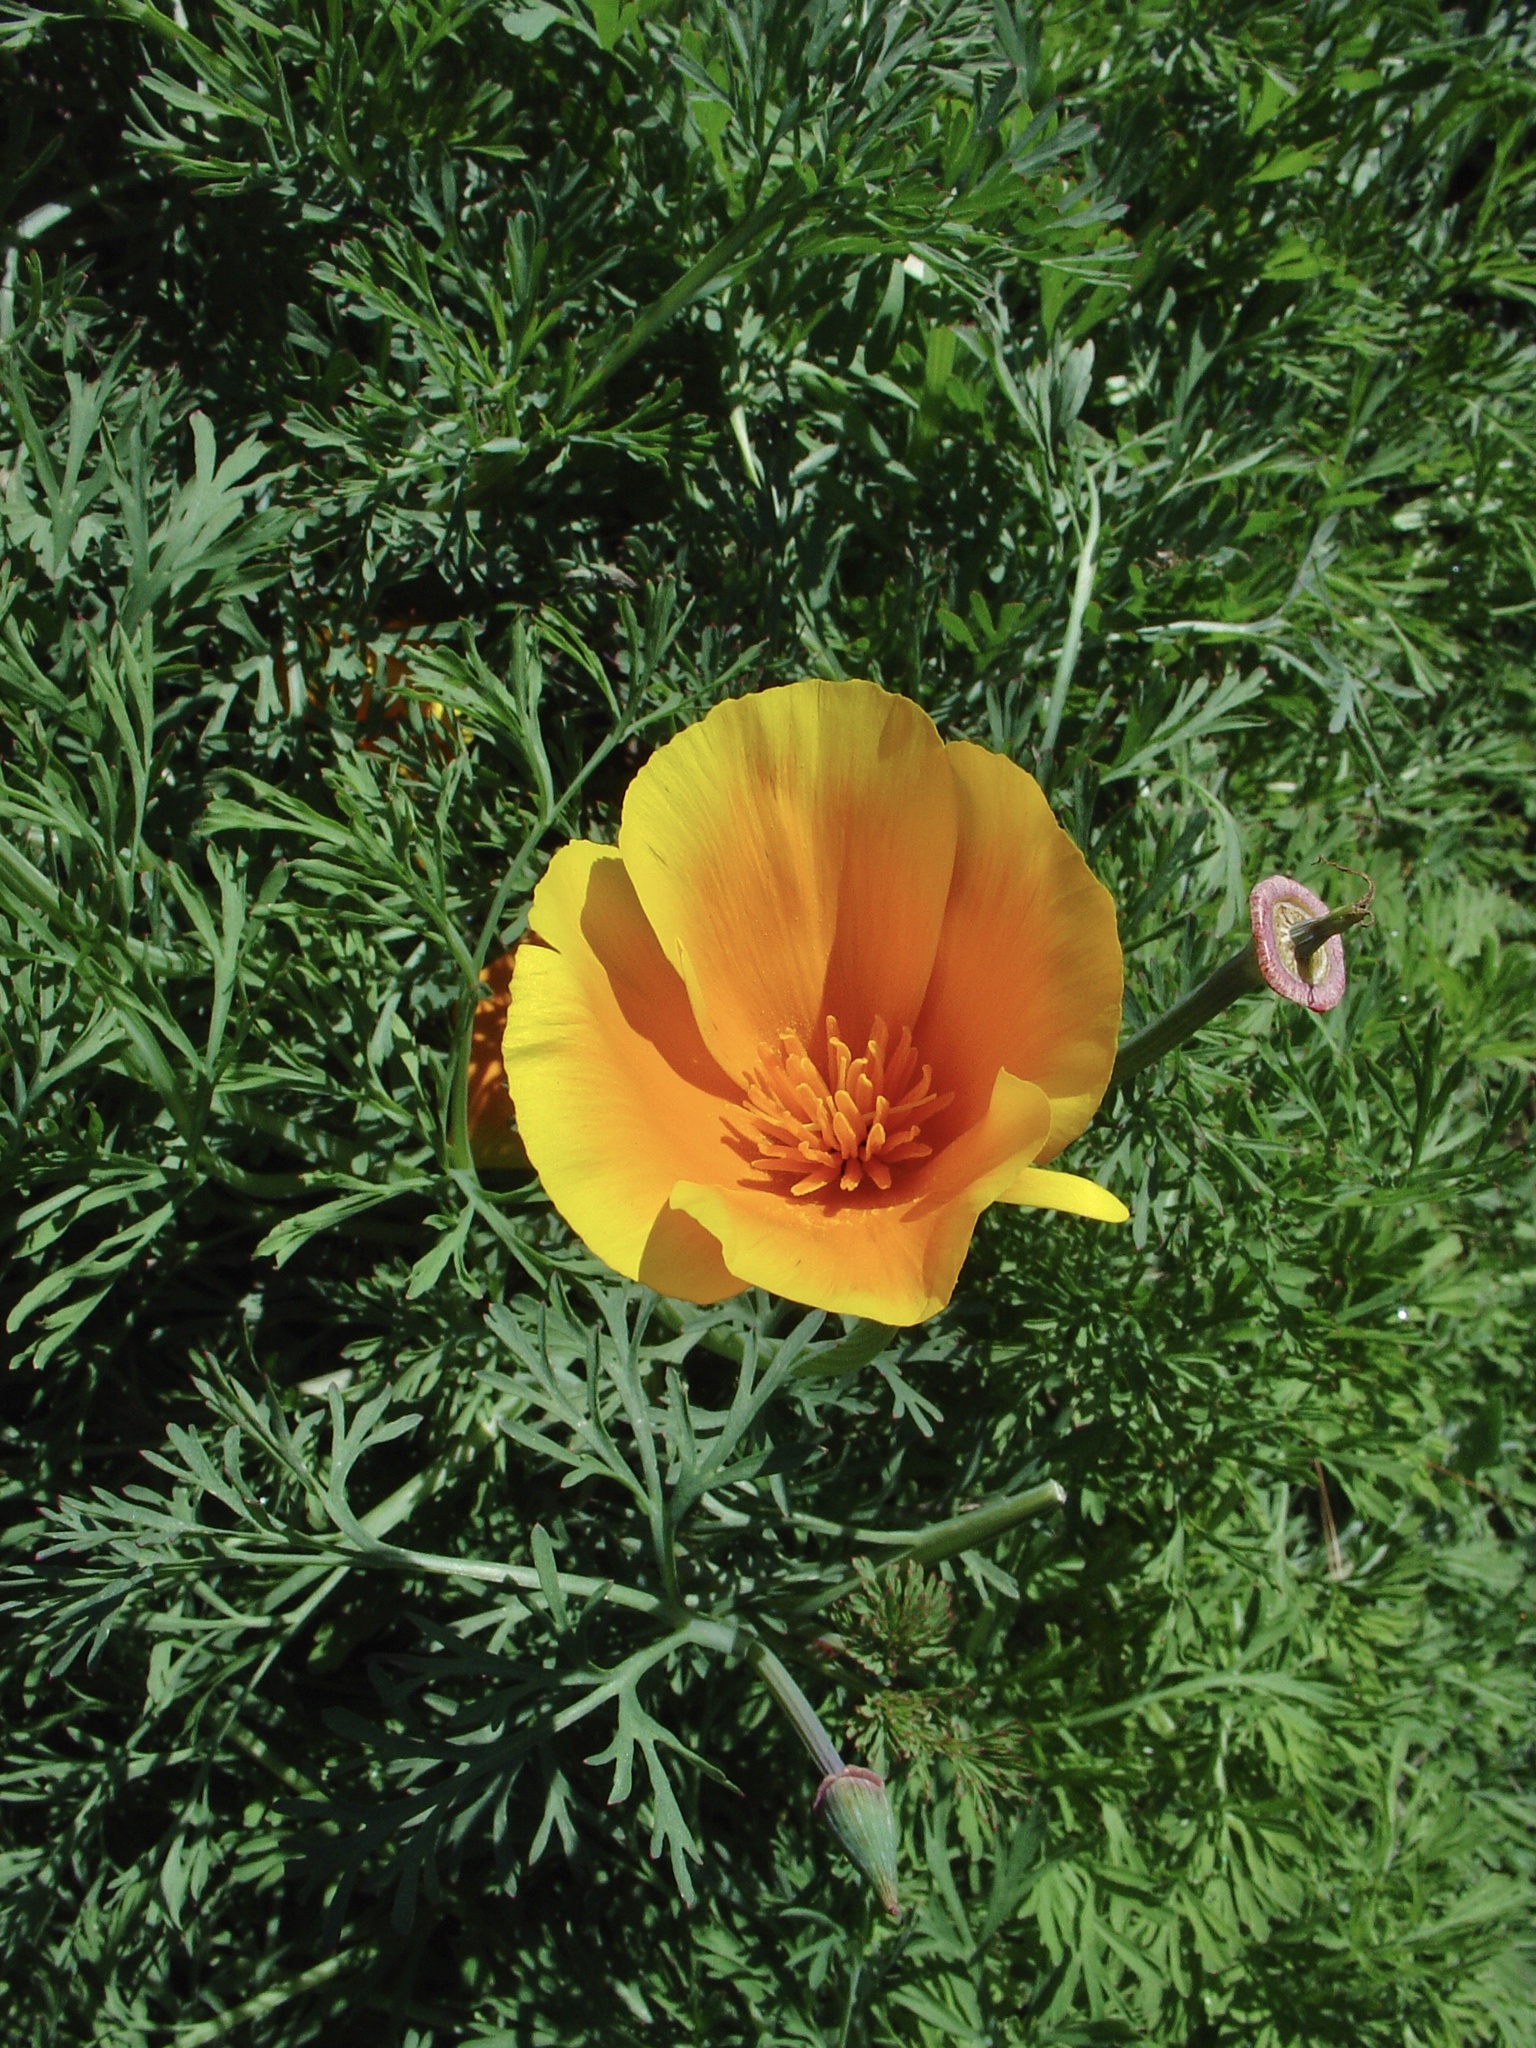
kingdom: Plantae
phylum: Tracheophyta
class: Magnoliopsida
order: Ranunculales
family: Papaveraceae
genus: Eschscholzia
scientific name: Eschscholzia californica
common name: California poppy
